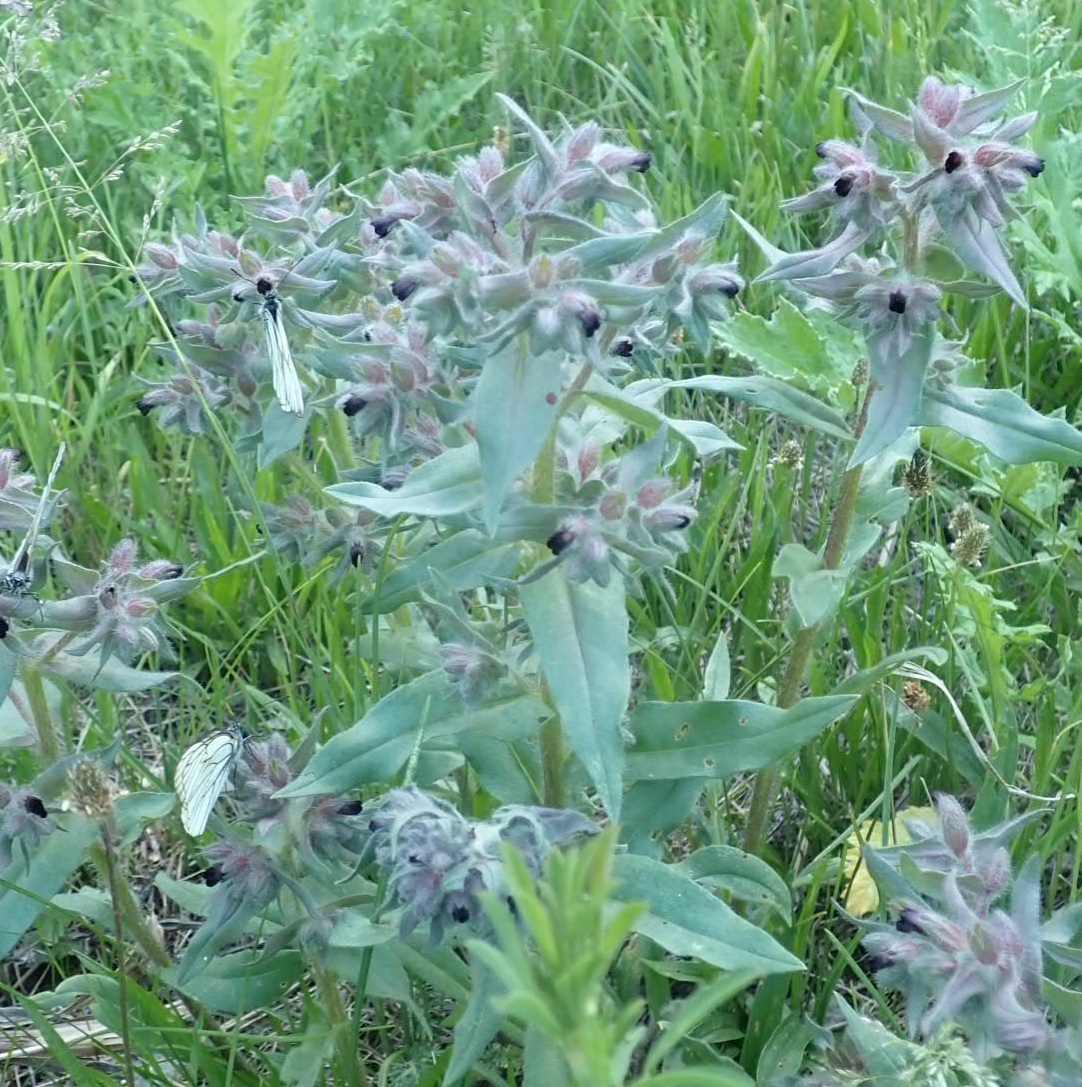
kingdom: Plantae
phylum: Tracheophyta
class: Magnoliopsida
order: Boraginales
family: Boraginaceae
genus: Nonea
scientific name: Nonea pulla
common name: Brown nonea
